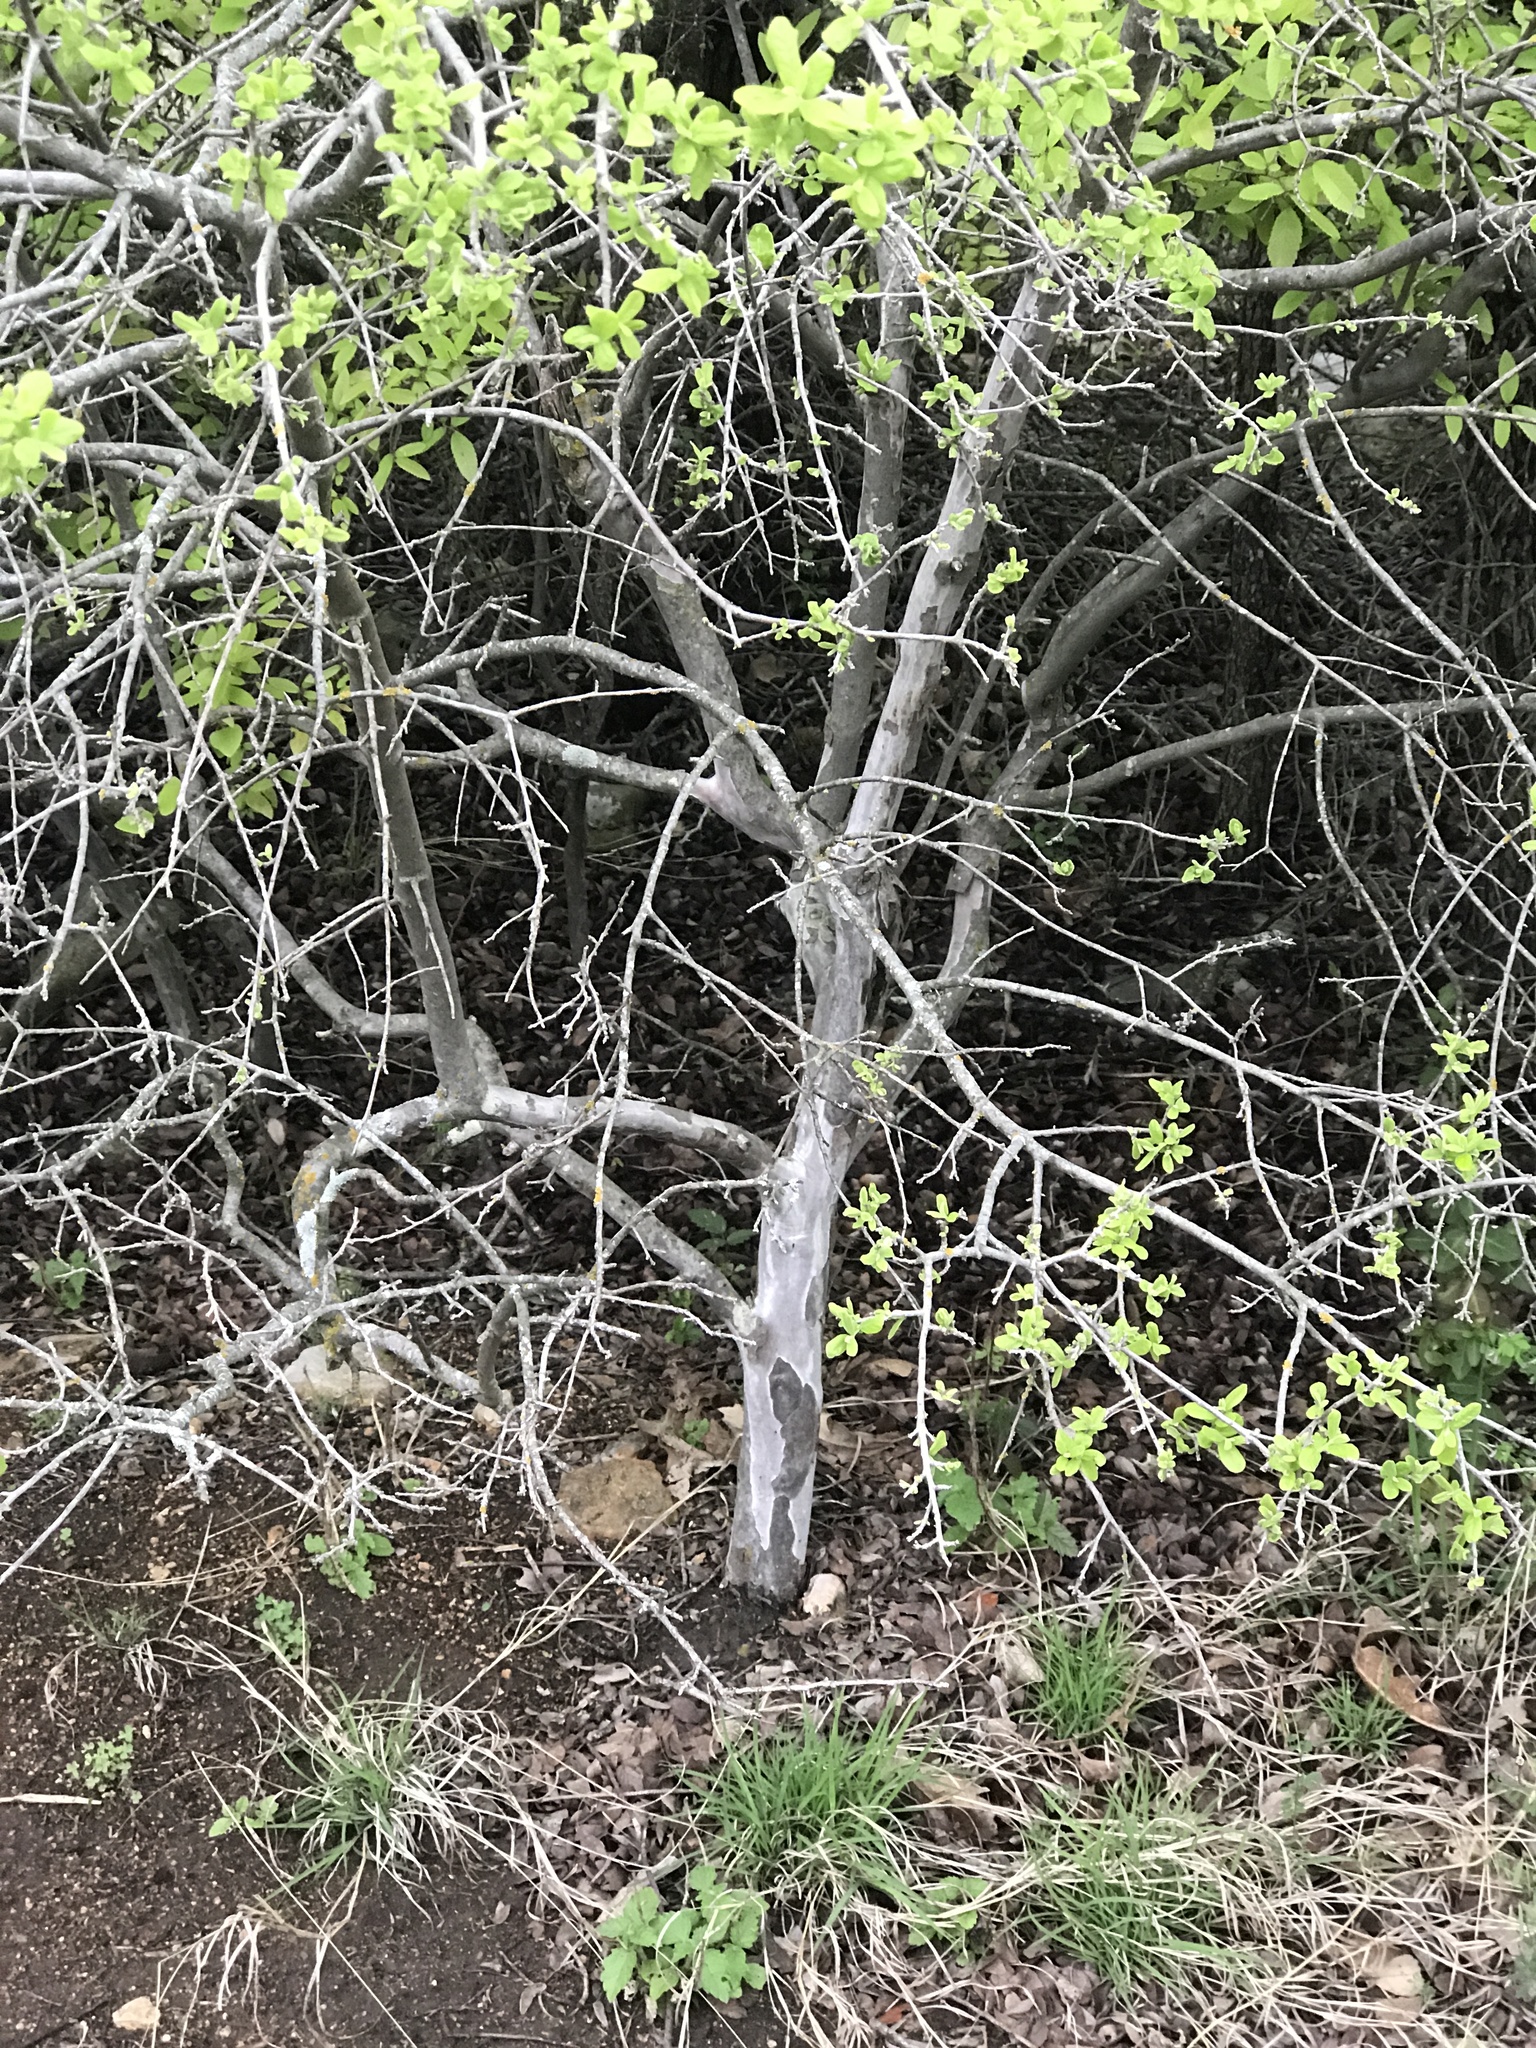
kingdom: Plantae
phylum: Tracheophyta
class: Magnoliopsida
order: Ericales
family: Ebenaceae
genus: Diospyros
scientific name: Diospyros texana
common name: Texas persimmon
